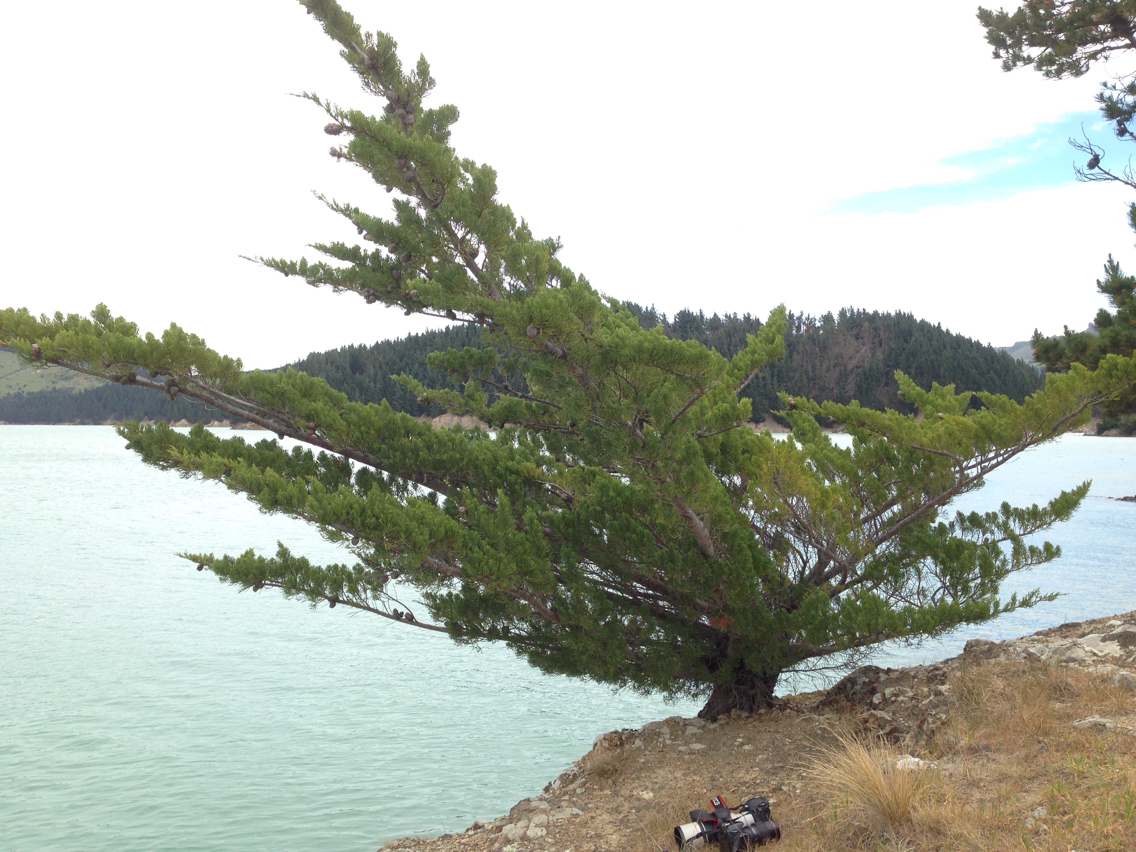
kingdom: Plantae
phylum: Tracheophyta
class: Pinopsida
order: Pinales
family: Cupressaceae
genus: Cupressus
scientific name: Cupressus macrocarpa
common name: Monterey cypress
